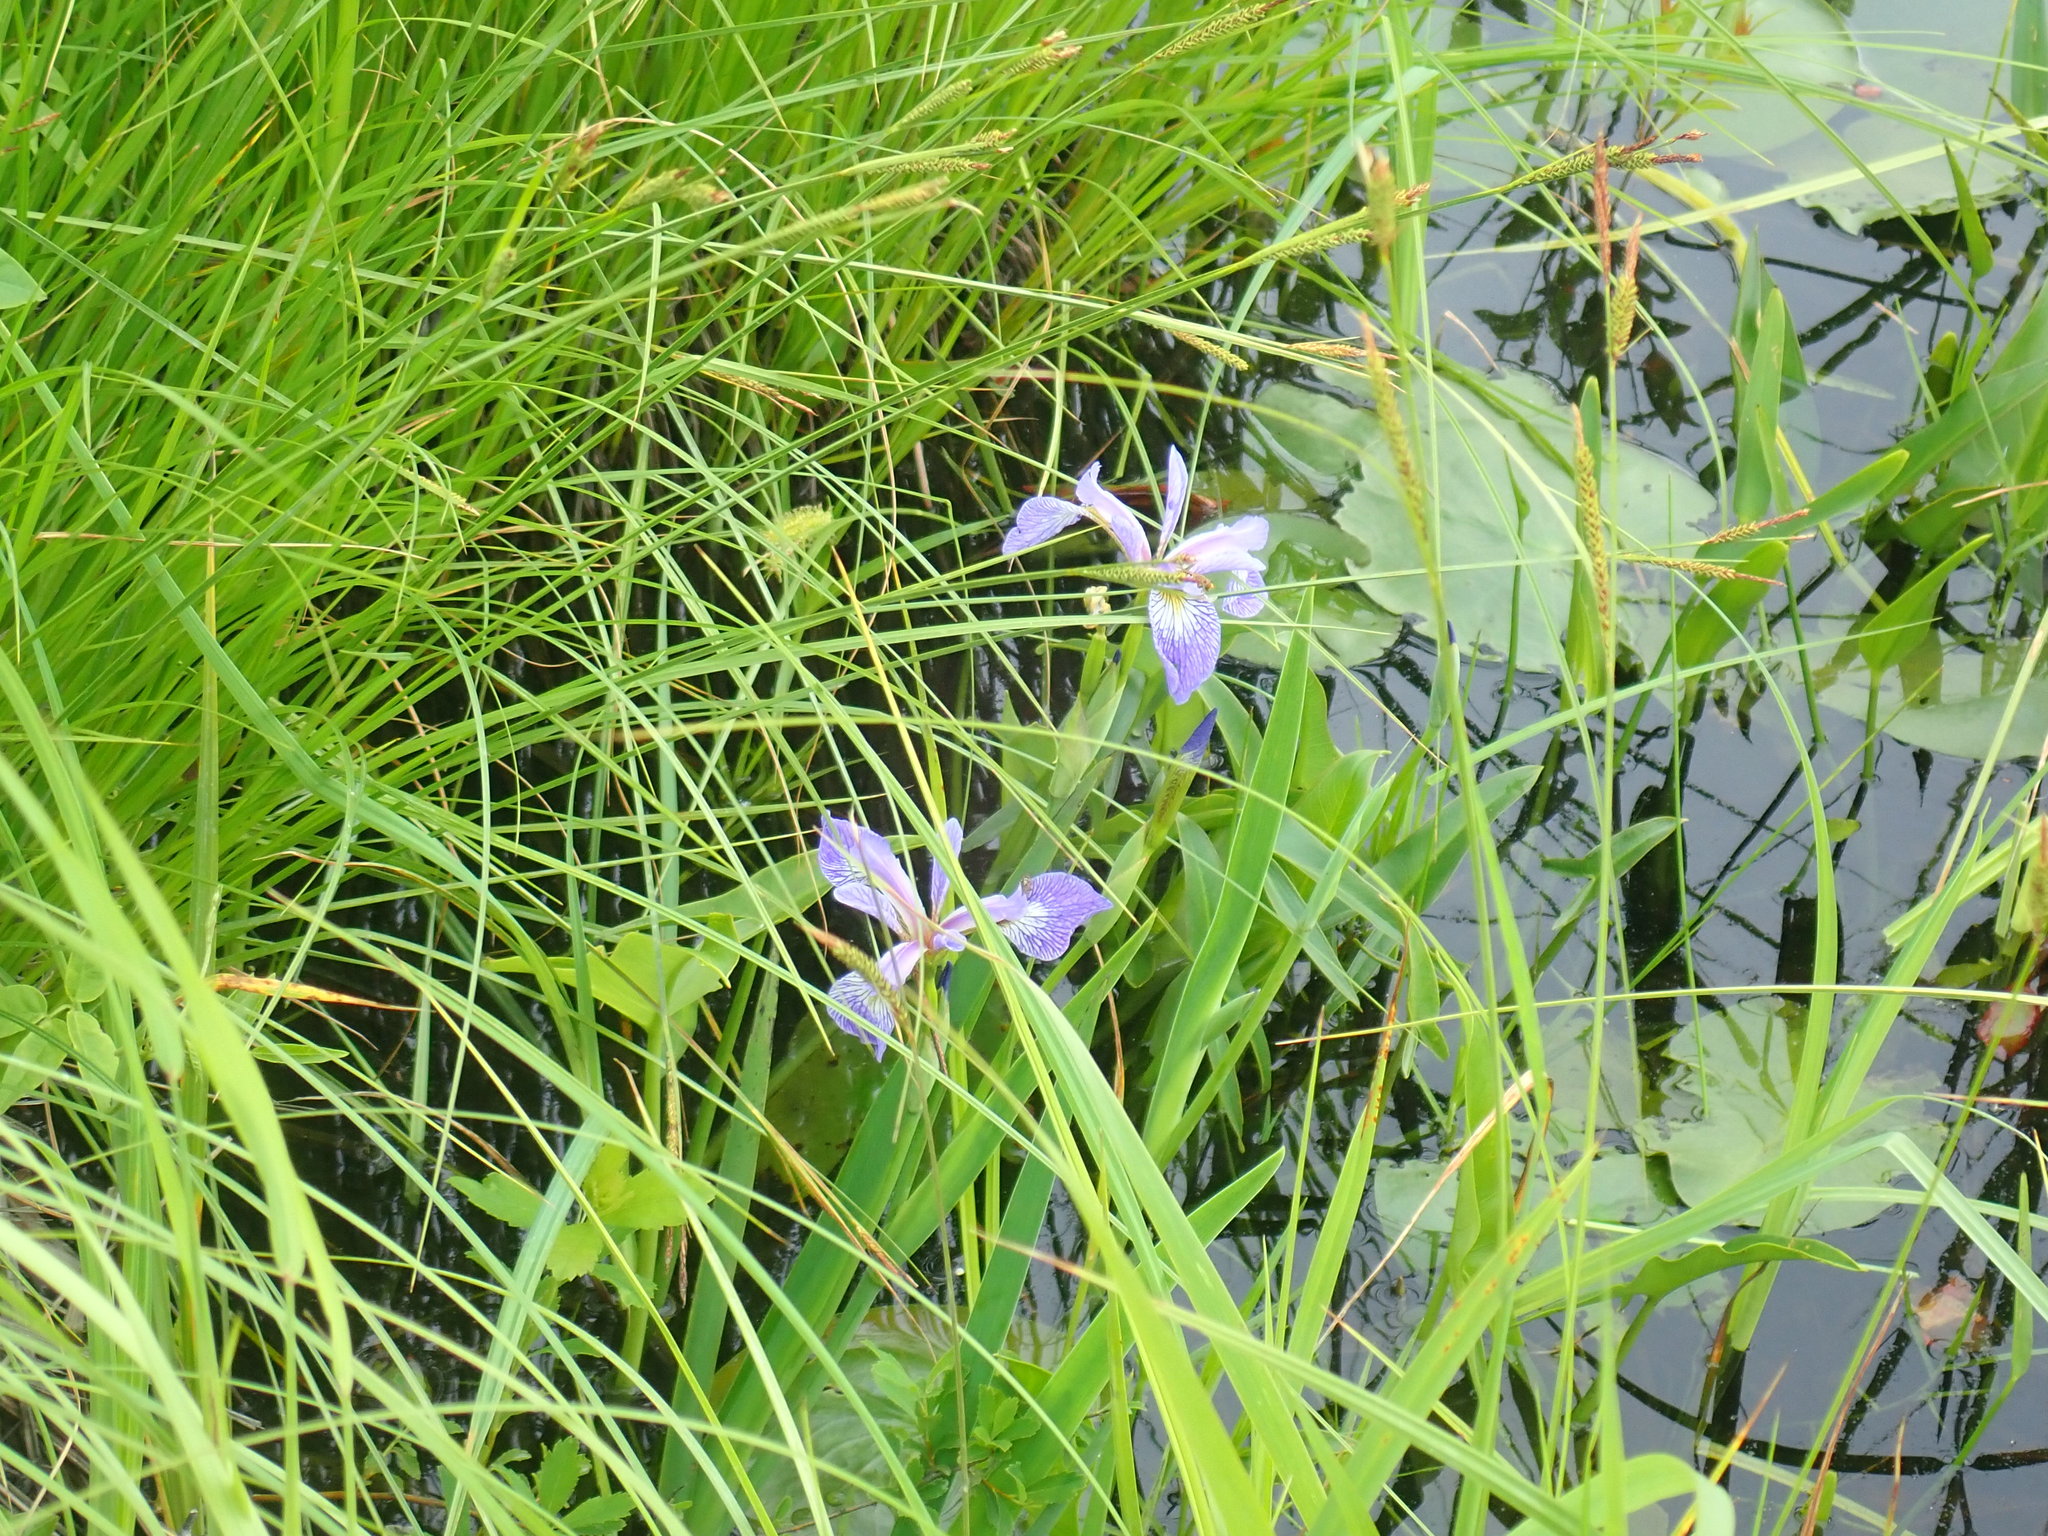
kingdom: Plantae
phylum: Tracheophyta
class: Liliopsida
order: Asparagales
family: Iridaceae
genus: Iris
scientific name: Iris versicolor
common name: Purple iris
